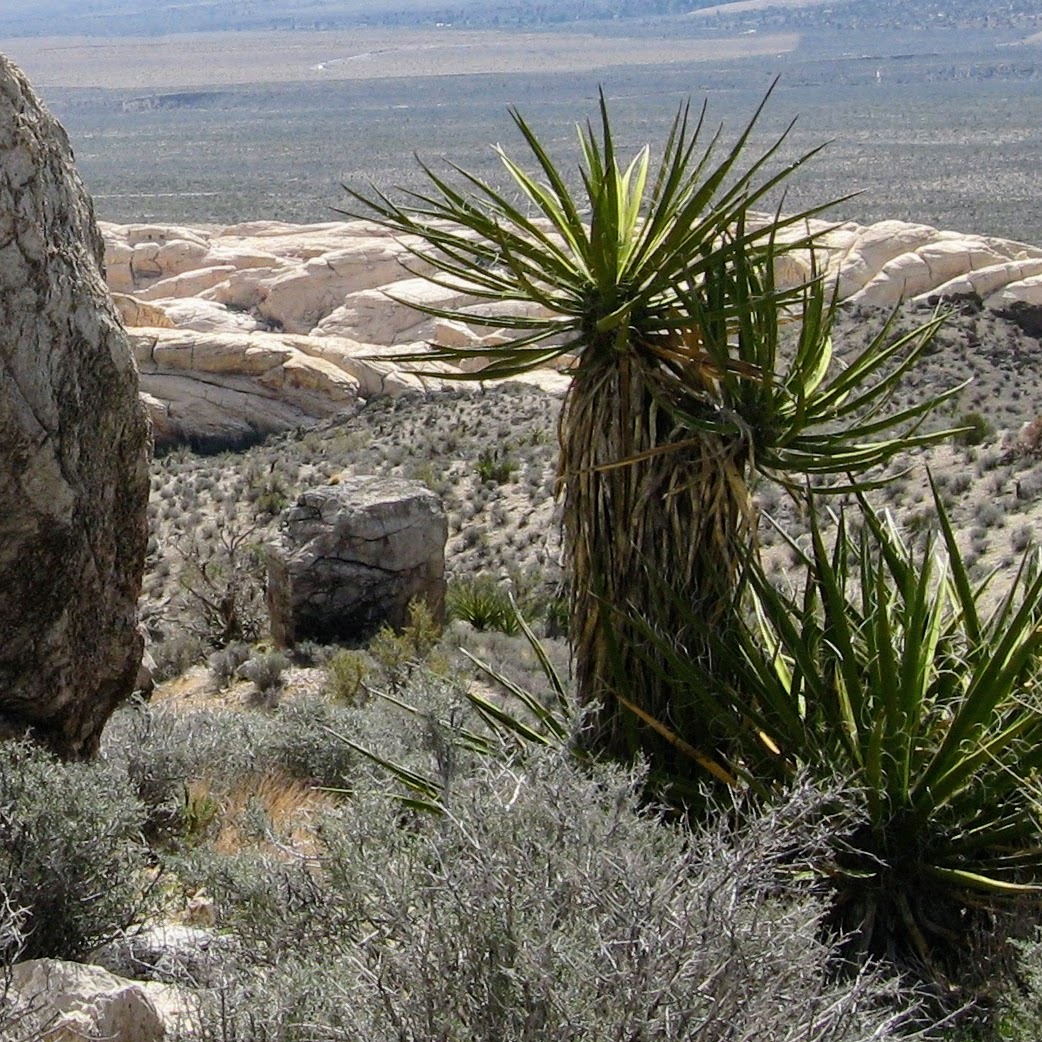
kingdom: Plantae
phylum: Tracheophyta
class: Liliopsida
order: Asparagales
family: Asparagaceae
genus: Yucca
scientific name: Yucca schidigera
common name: Mojave yucca
